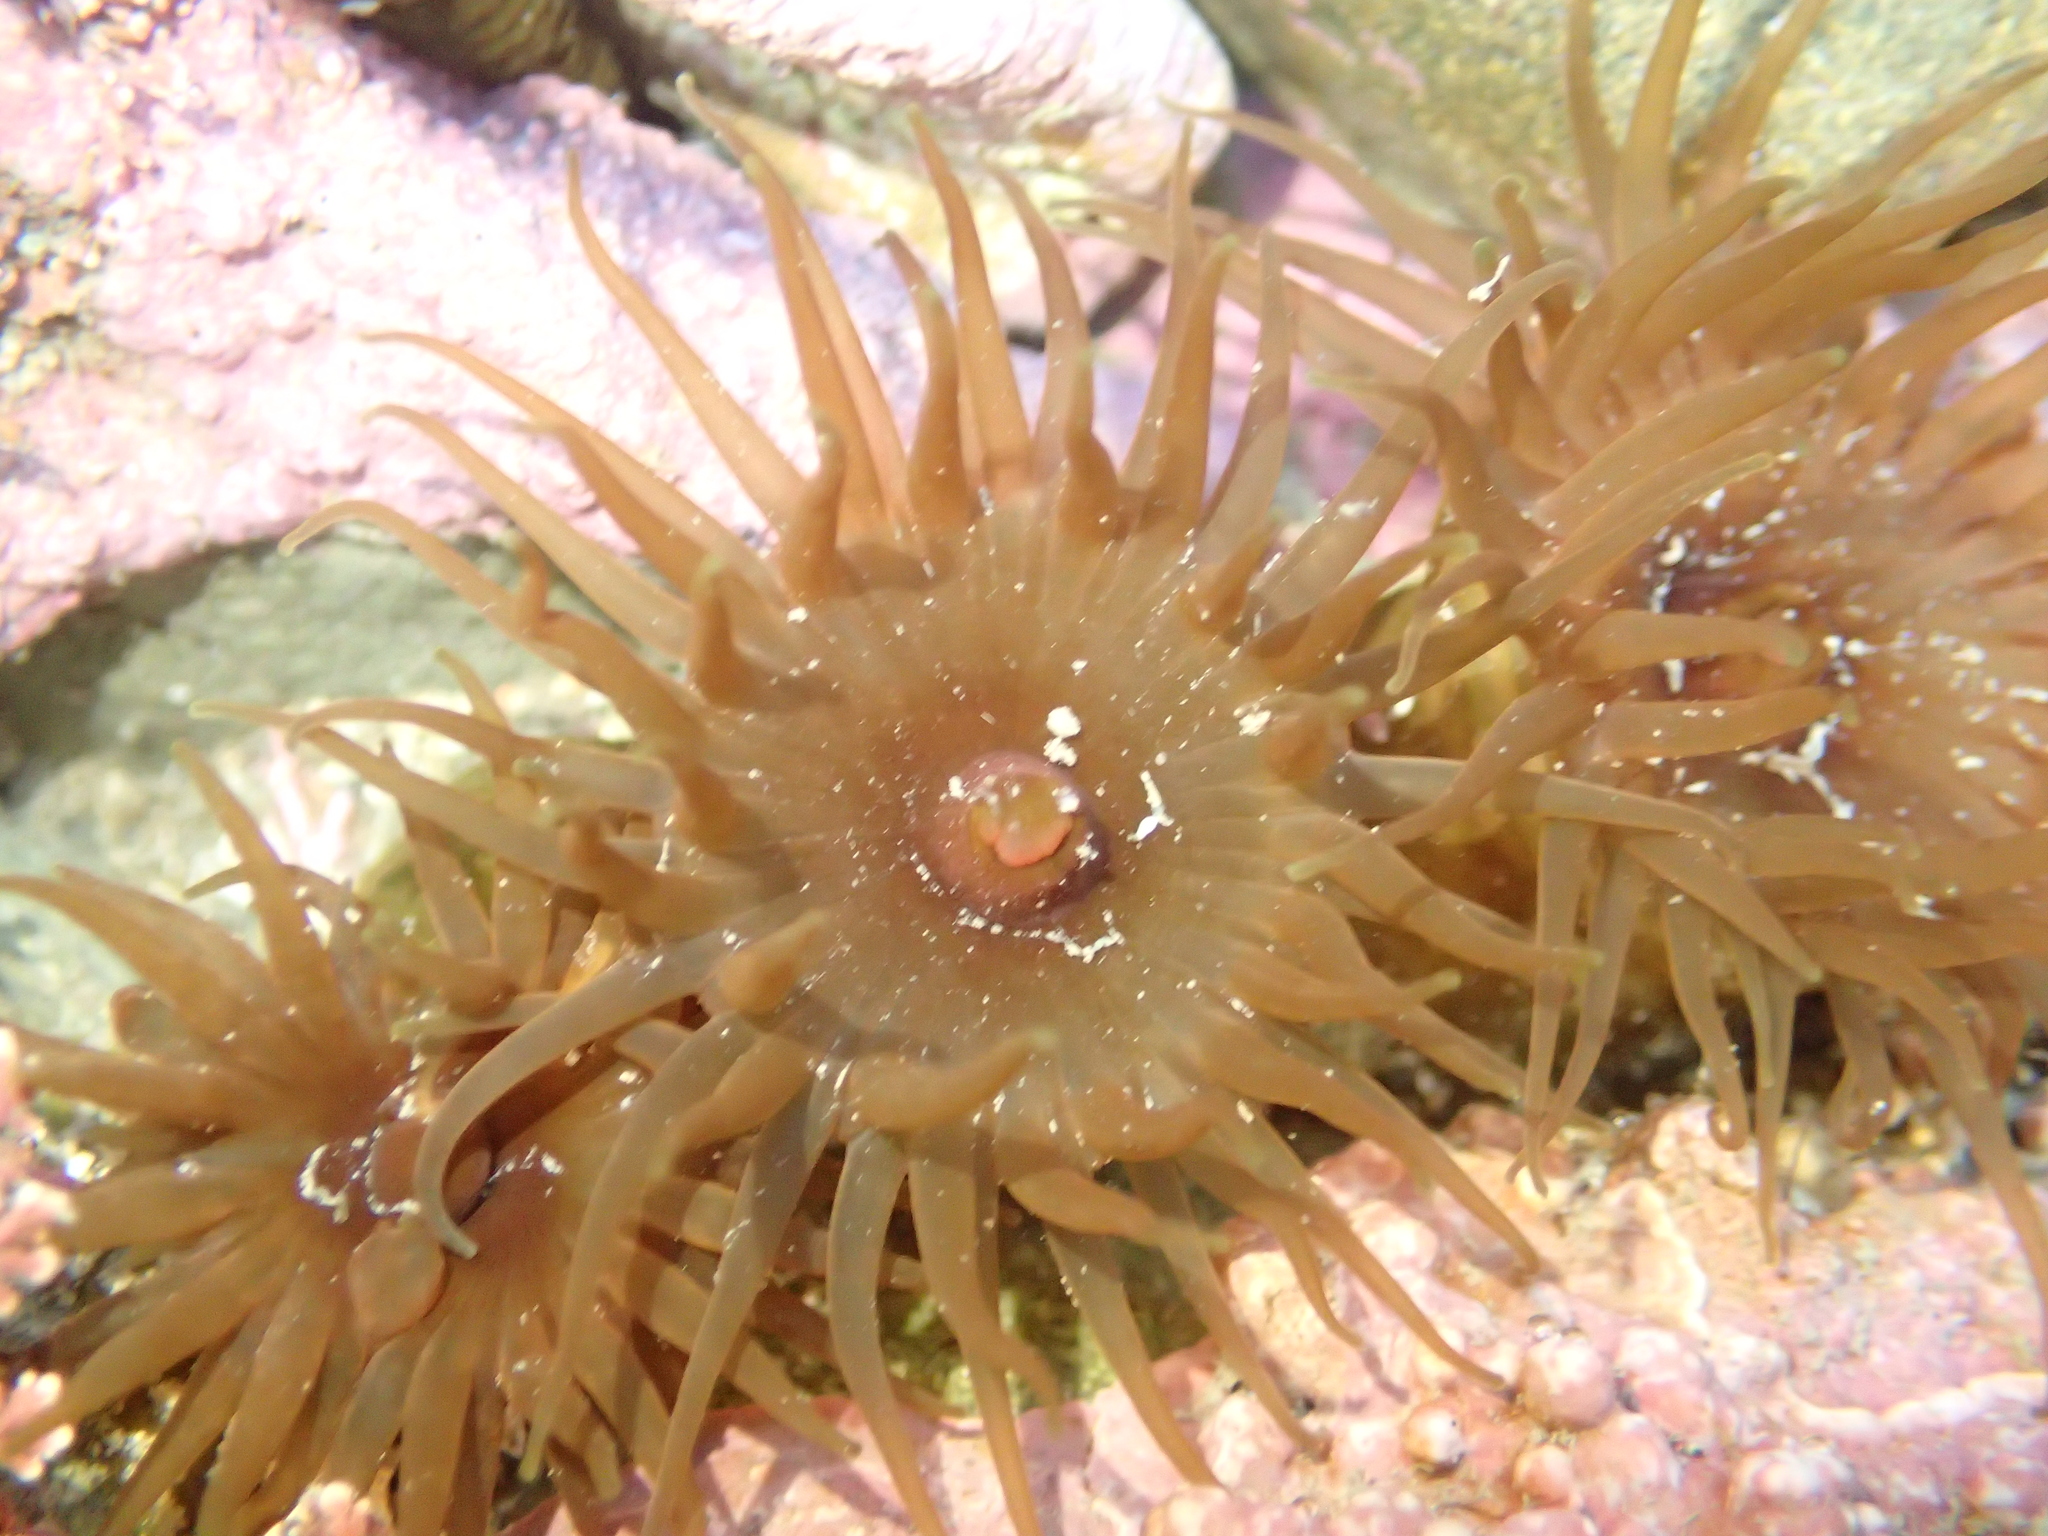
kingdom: Animalia
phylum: Cnidaria
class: Anthozoa
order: Actiniaria
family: Actiniidae
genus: Isactinia
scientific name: Isactinia olivacea
